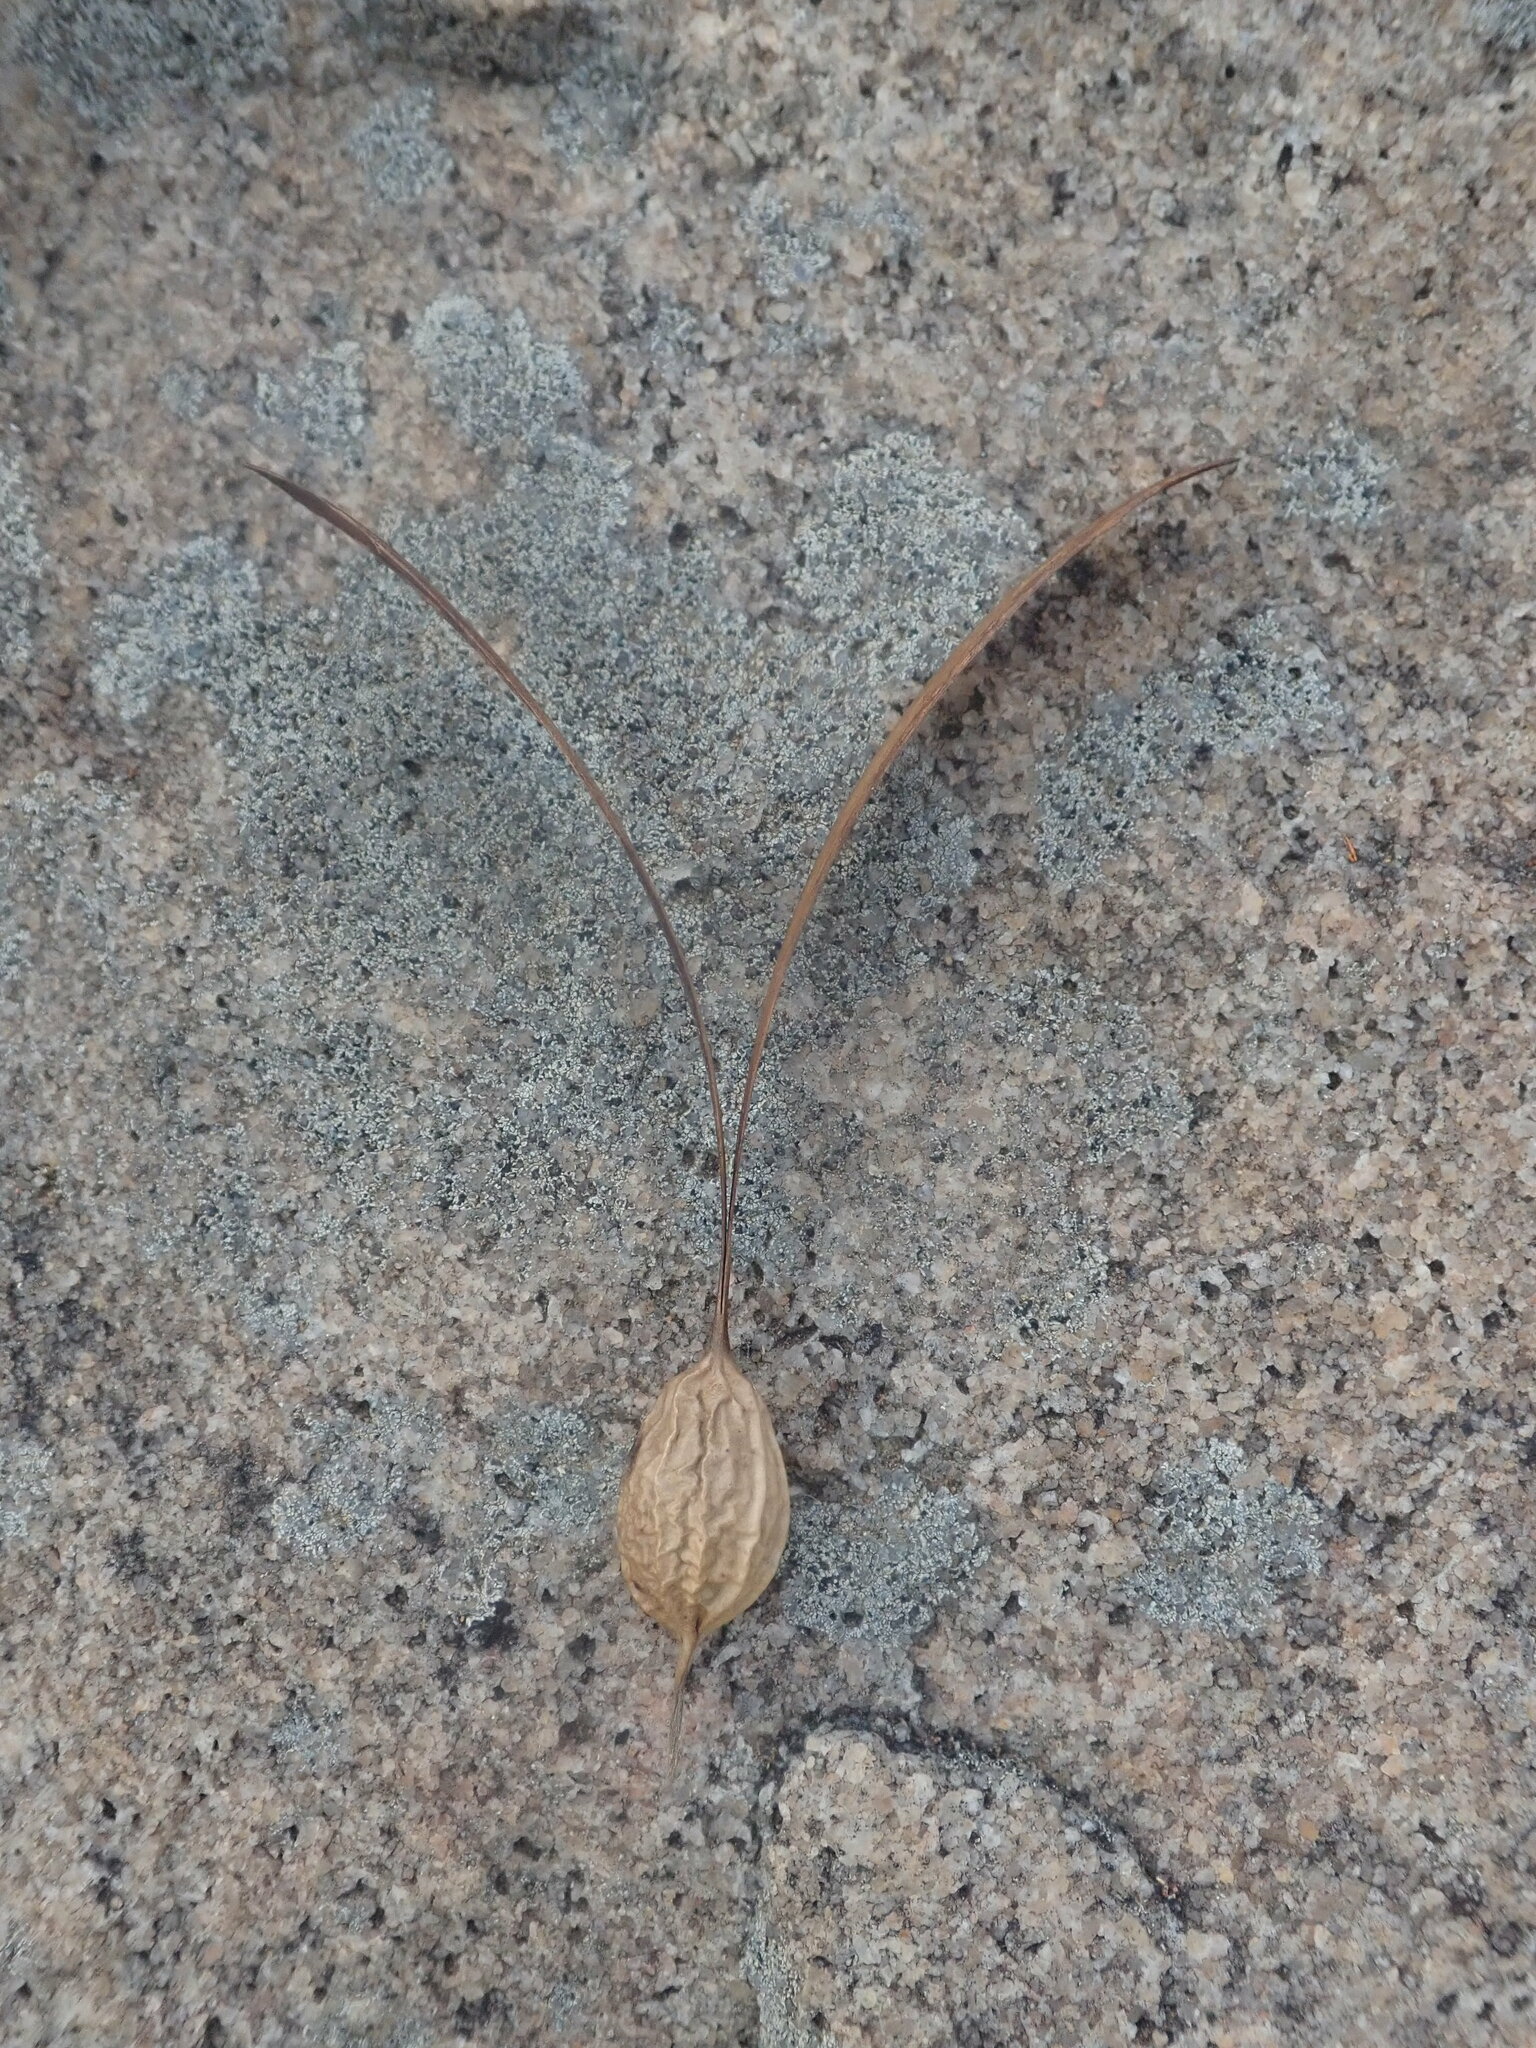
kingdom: Plantae
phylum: Tracheophyta
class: Magnoliopsida
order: Laurales
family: Hernandiaceae
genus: Gyrocarpus
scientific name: Gyrocarpus americanus
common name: Gyro damson
